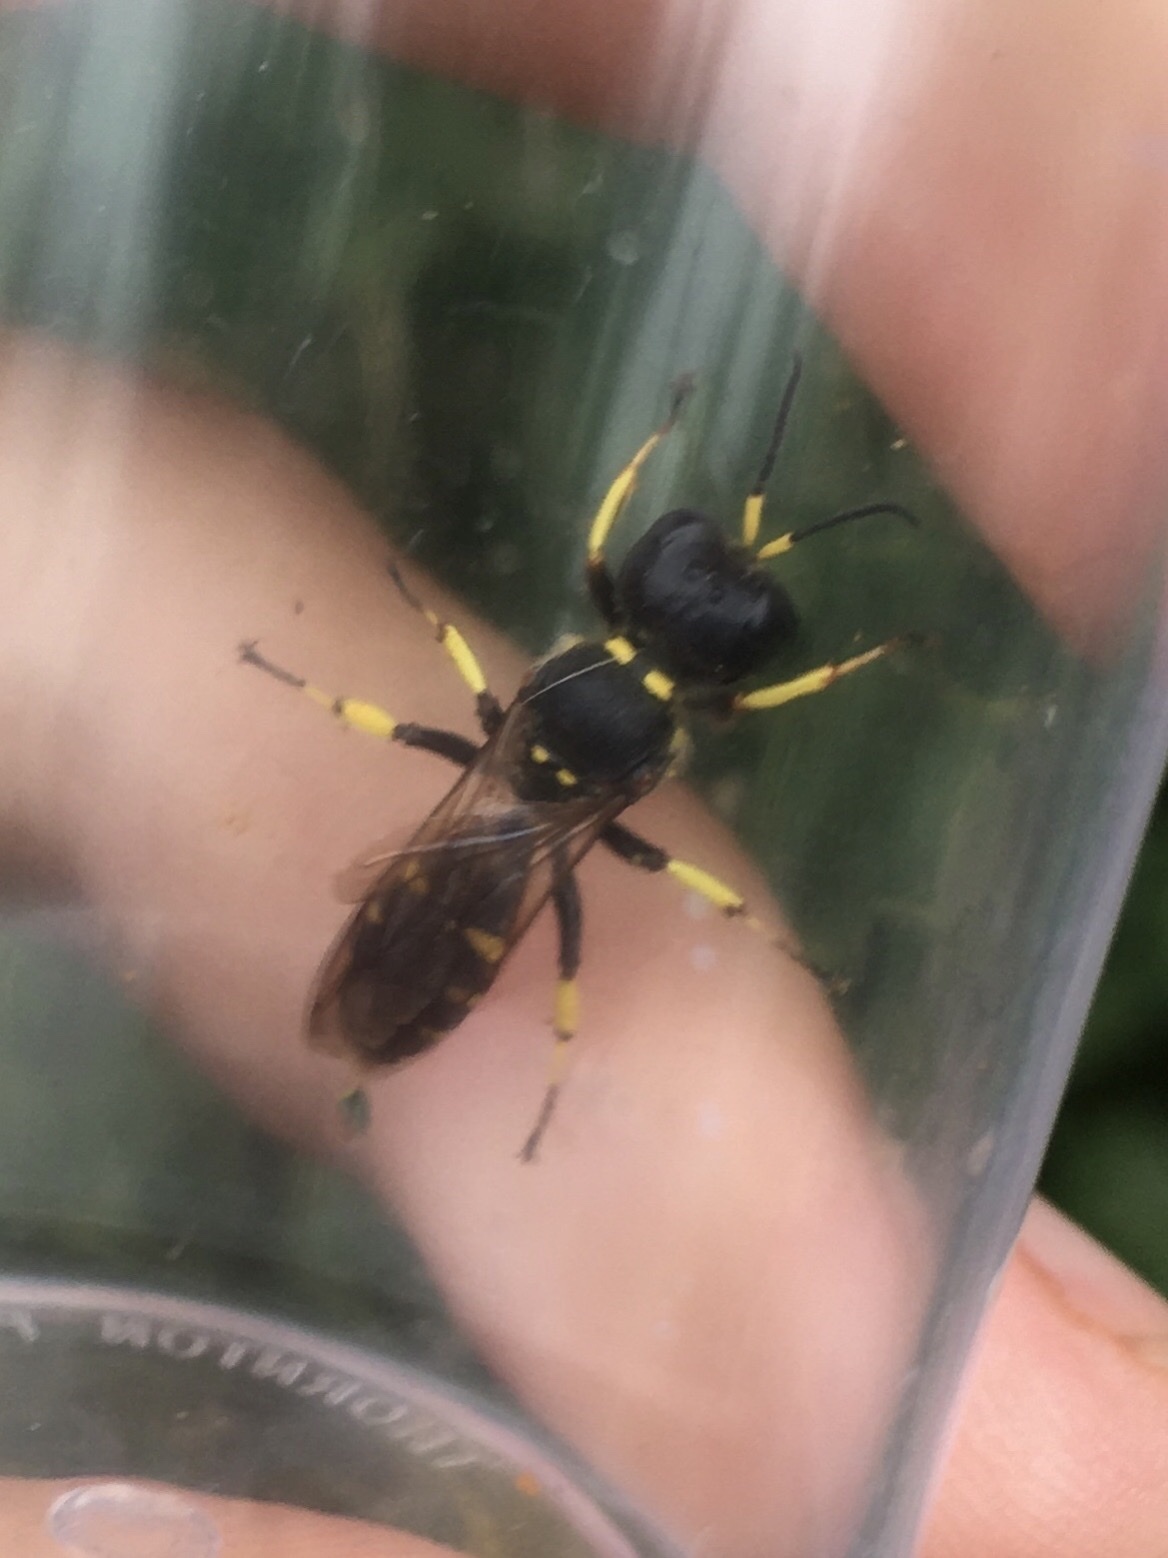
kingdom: Animalia
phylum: Arthropoda
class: Insecta
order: Hymenoptera
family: Crabronidae
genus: Ectemnius
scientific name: Ectemnius maculosus
